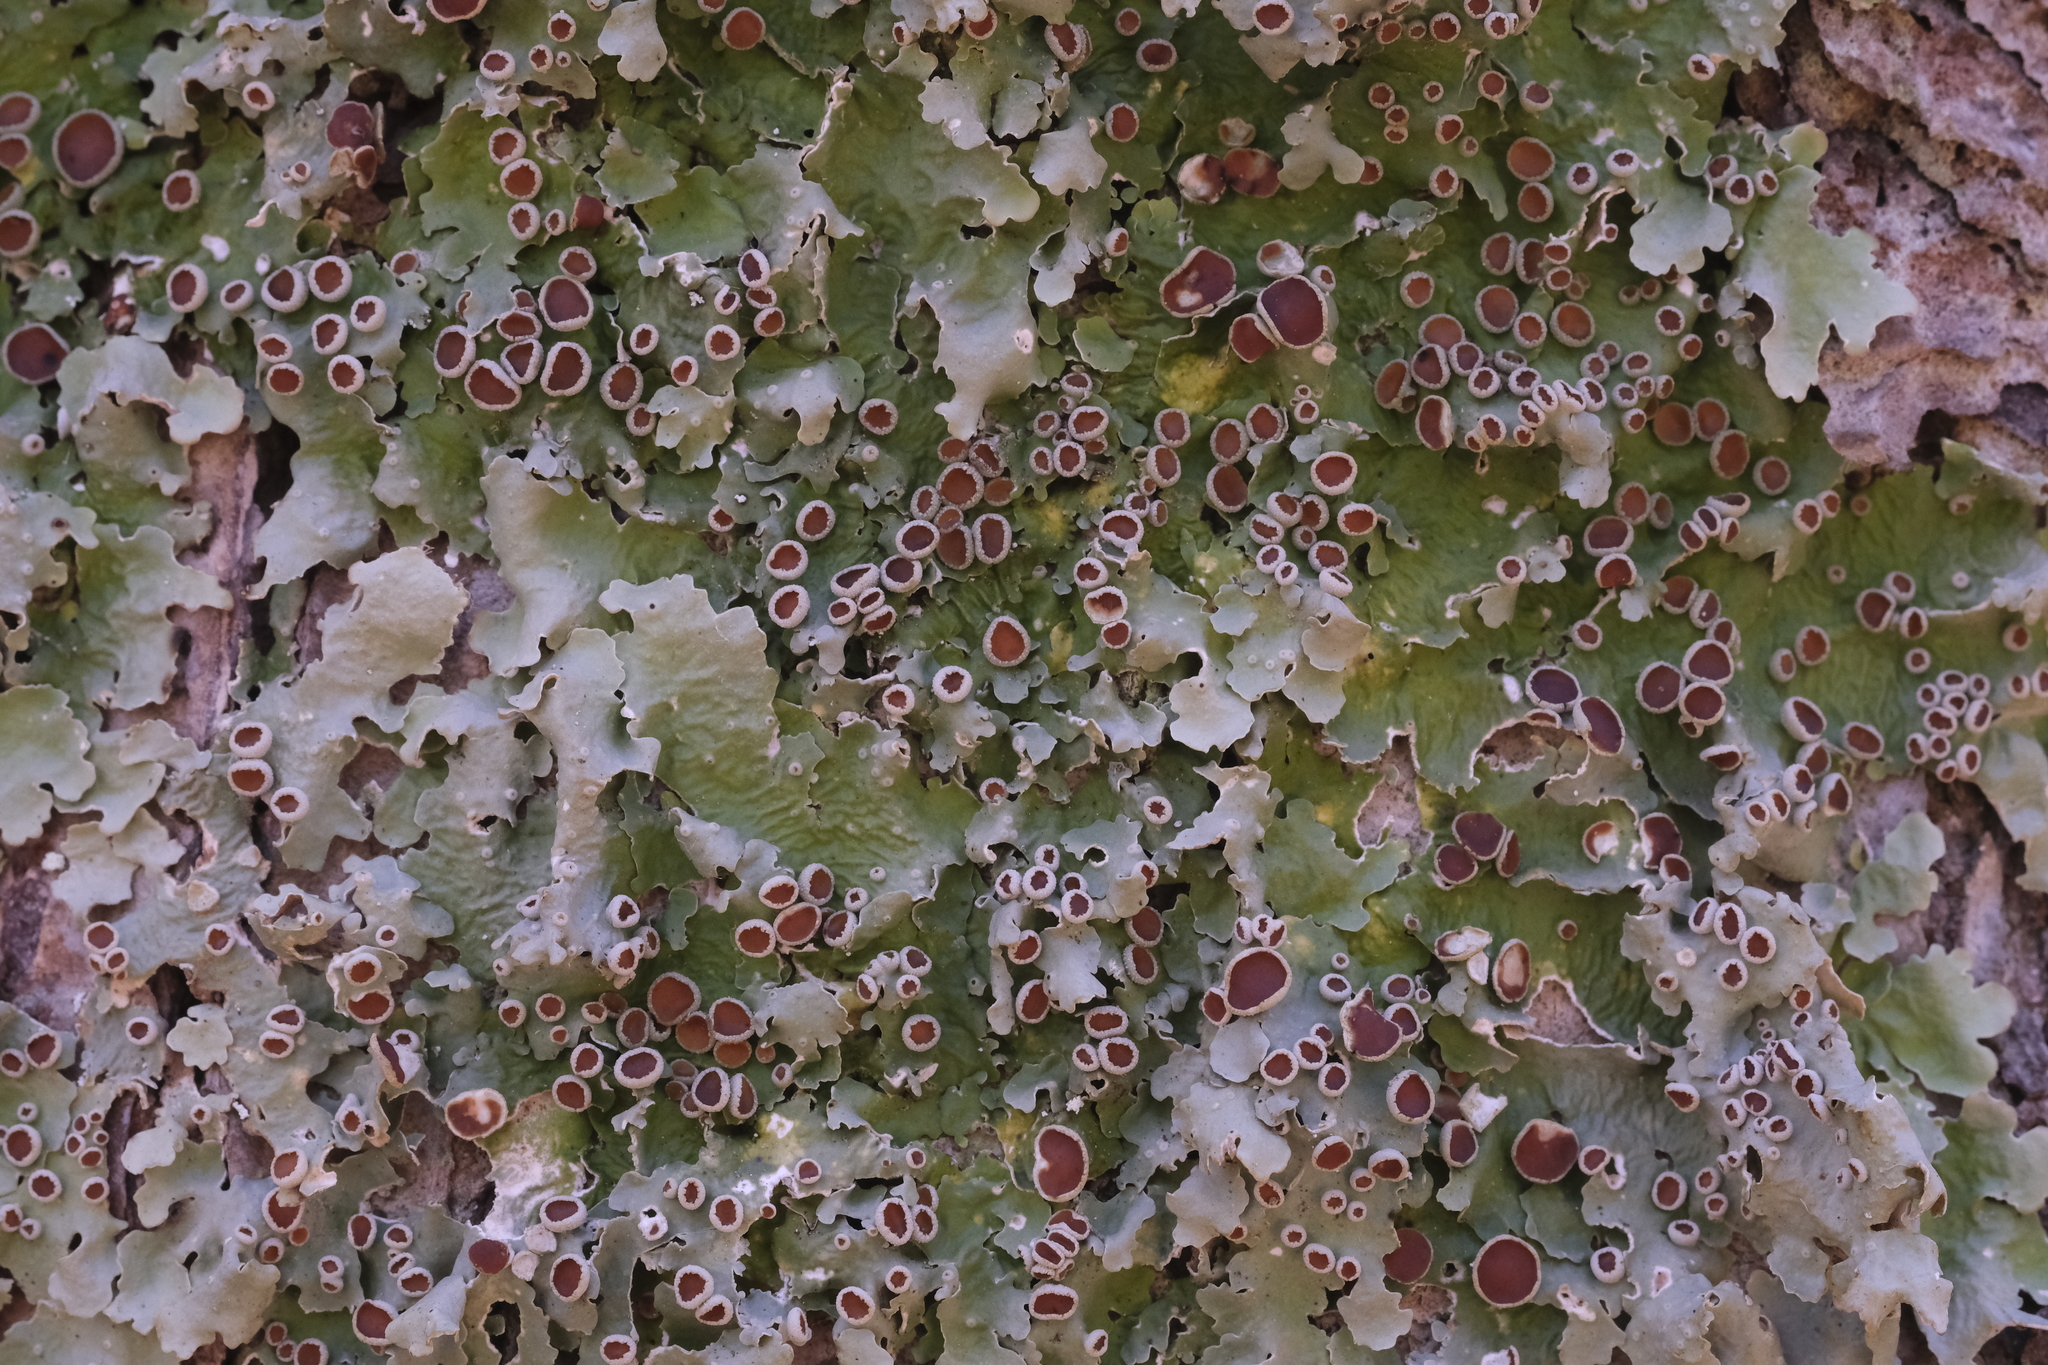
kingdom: Fungi
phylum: Ascomycota
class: Lecanoromycetes
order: Peltigerales
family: Lobariaceae
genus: Ricasolia
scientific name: Ricasolia quercizans
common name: Smooth lungwort
